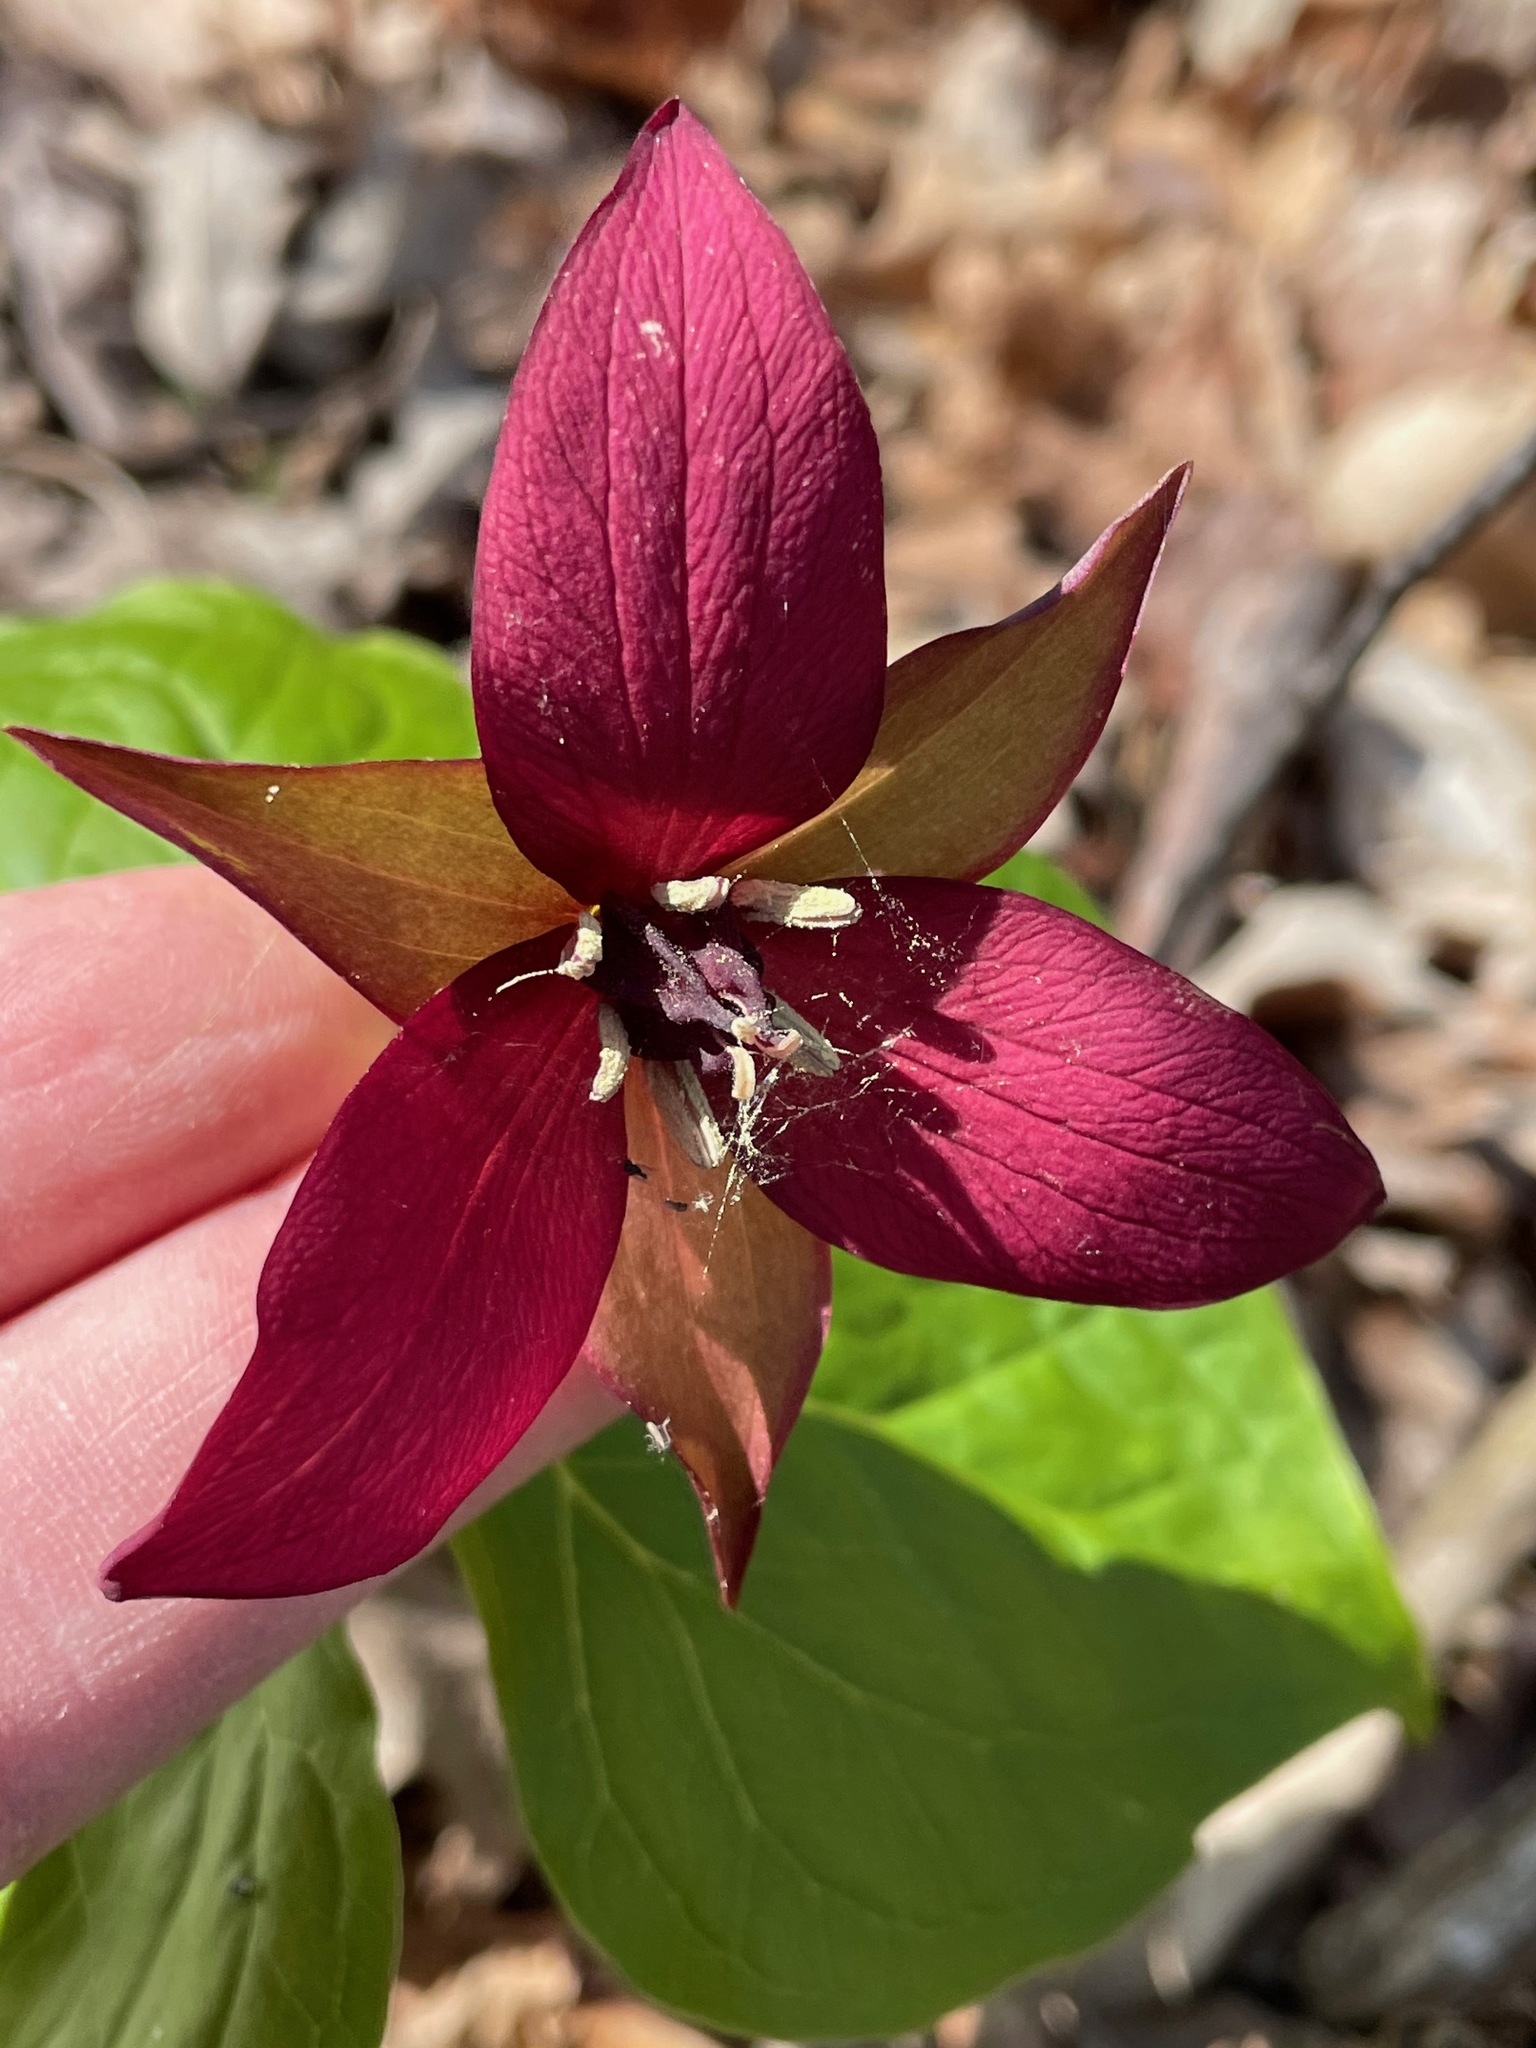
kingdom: Plantae
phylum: Tracheophyta
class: Liliopsida
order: Liliales
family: Melanthiaceae
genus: Trillium
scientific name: Trillium erectum
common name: Purple trillium
